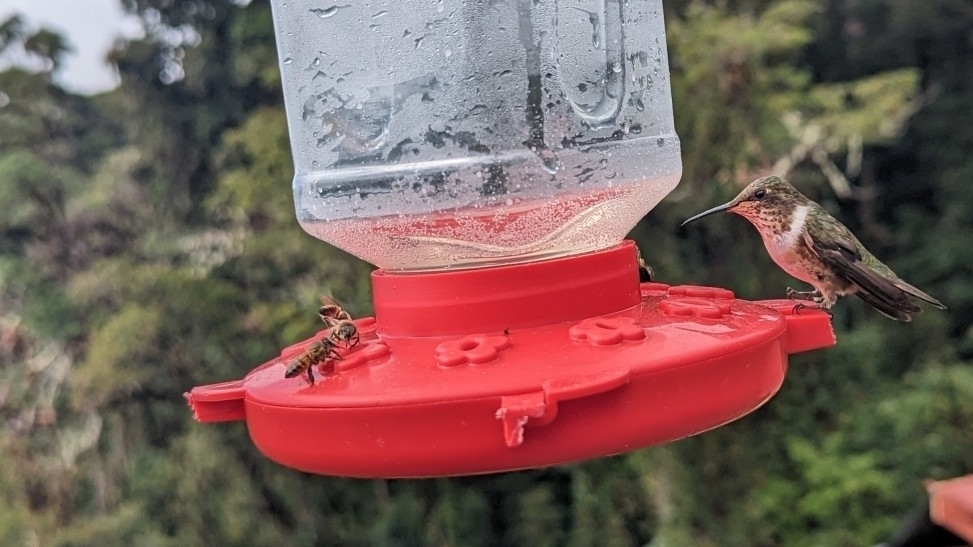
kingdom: Animalia
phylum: Arthropoda
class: Insecta
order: Hymenoptera
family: Apidae
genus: Apis
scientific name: Apis mellifera
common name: Honey bee
